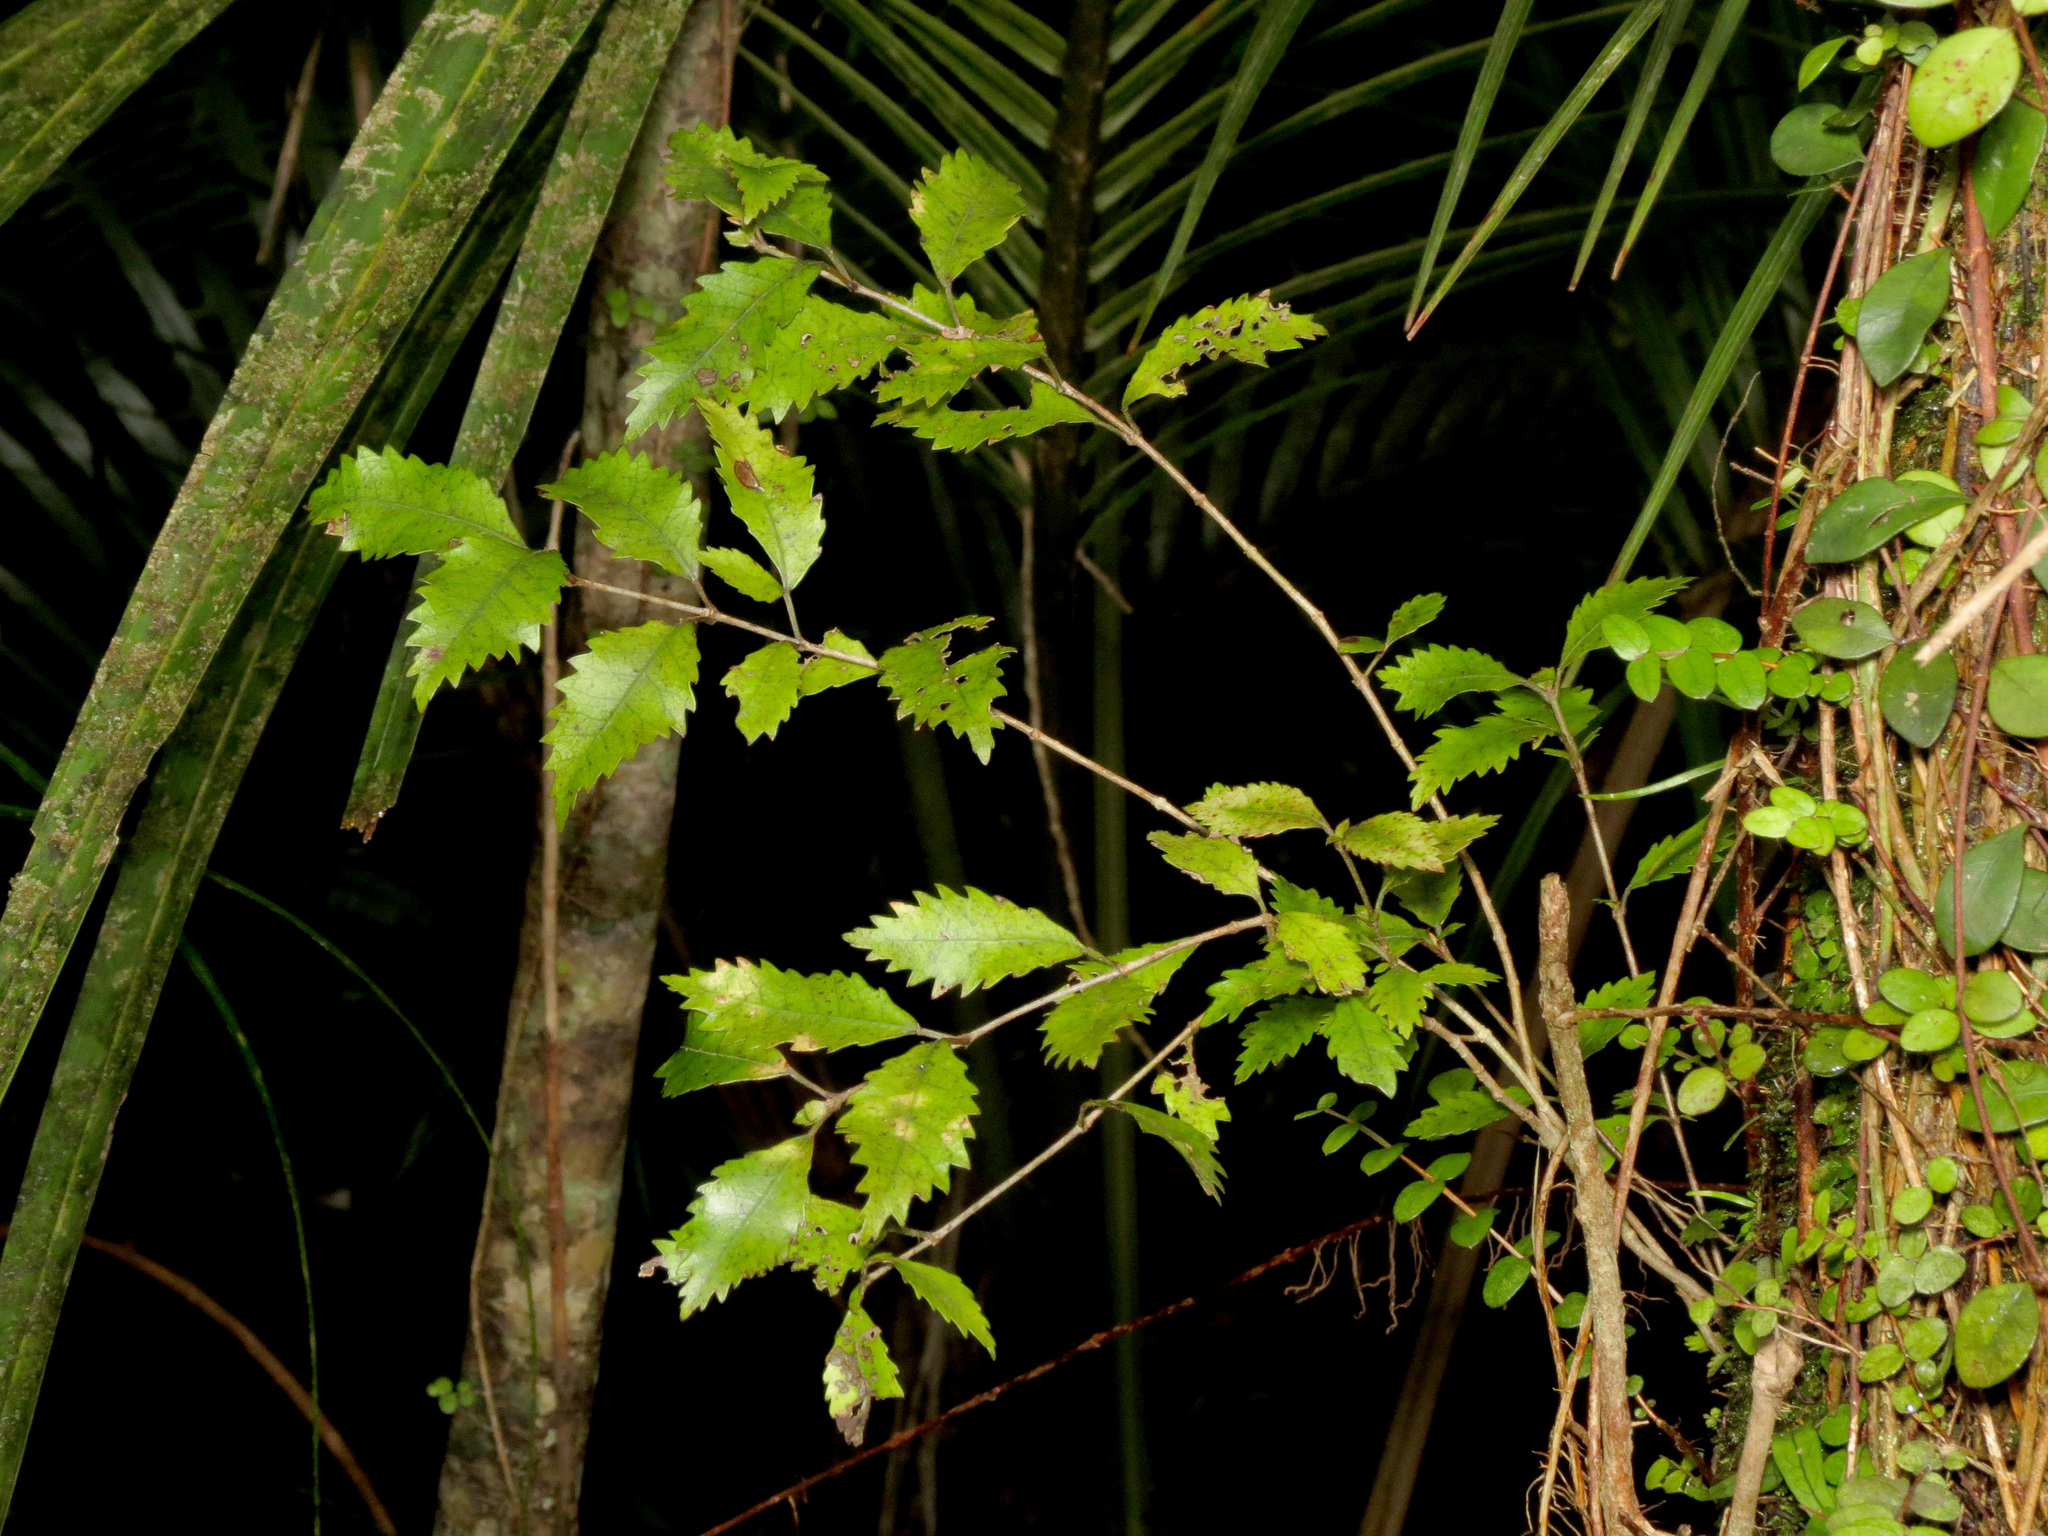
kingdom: Plantae
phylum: Tracheophyta
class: Magnoliopsida
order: Oxalidales
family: Cunoniaceae
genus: Pterophylla
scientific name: Pterophylla racemosa
